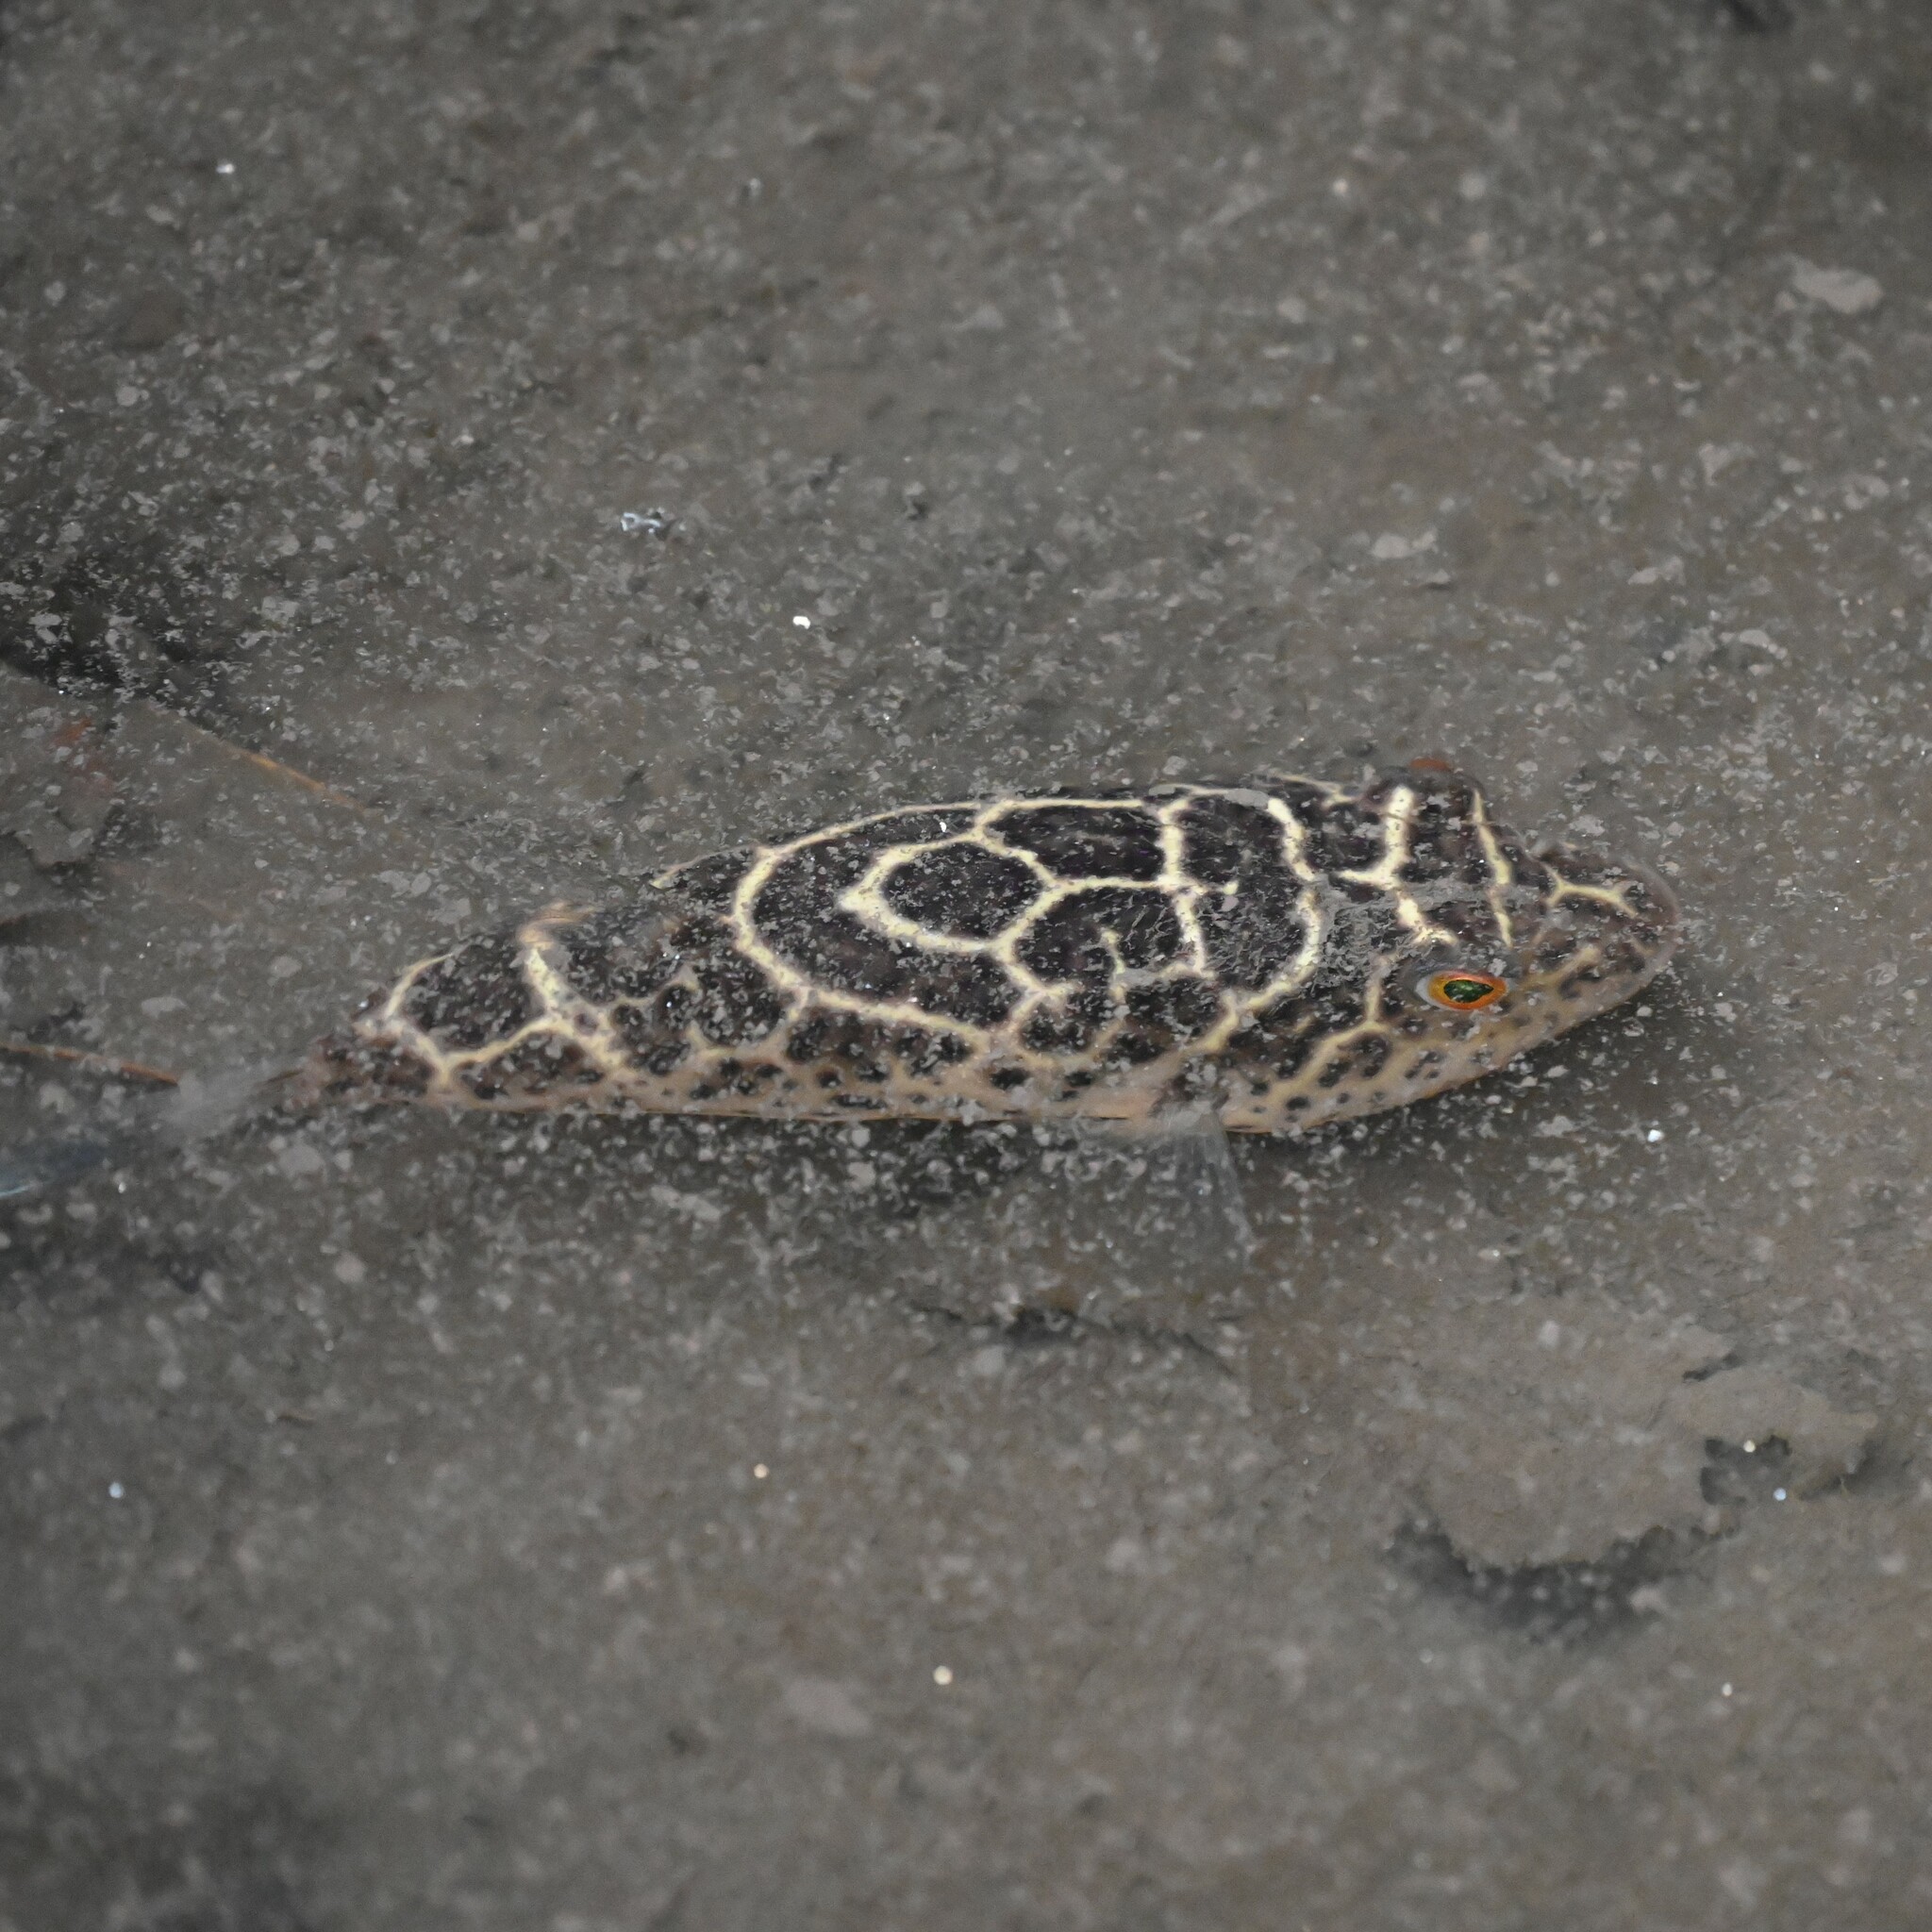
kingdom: Animalia
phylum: Chordata
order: Tetraodontiformes
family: Tetraodontidae
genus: Sphoeroides
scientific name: Sphoeroides testudineus
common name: Checkered puffer
